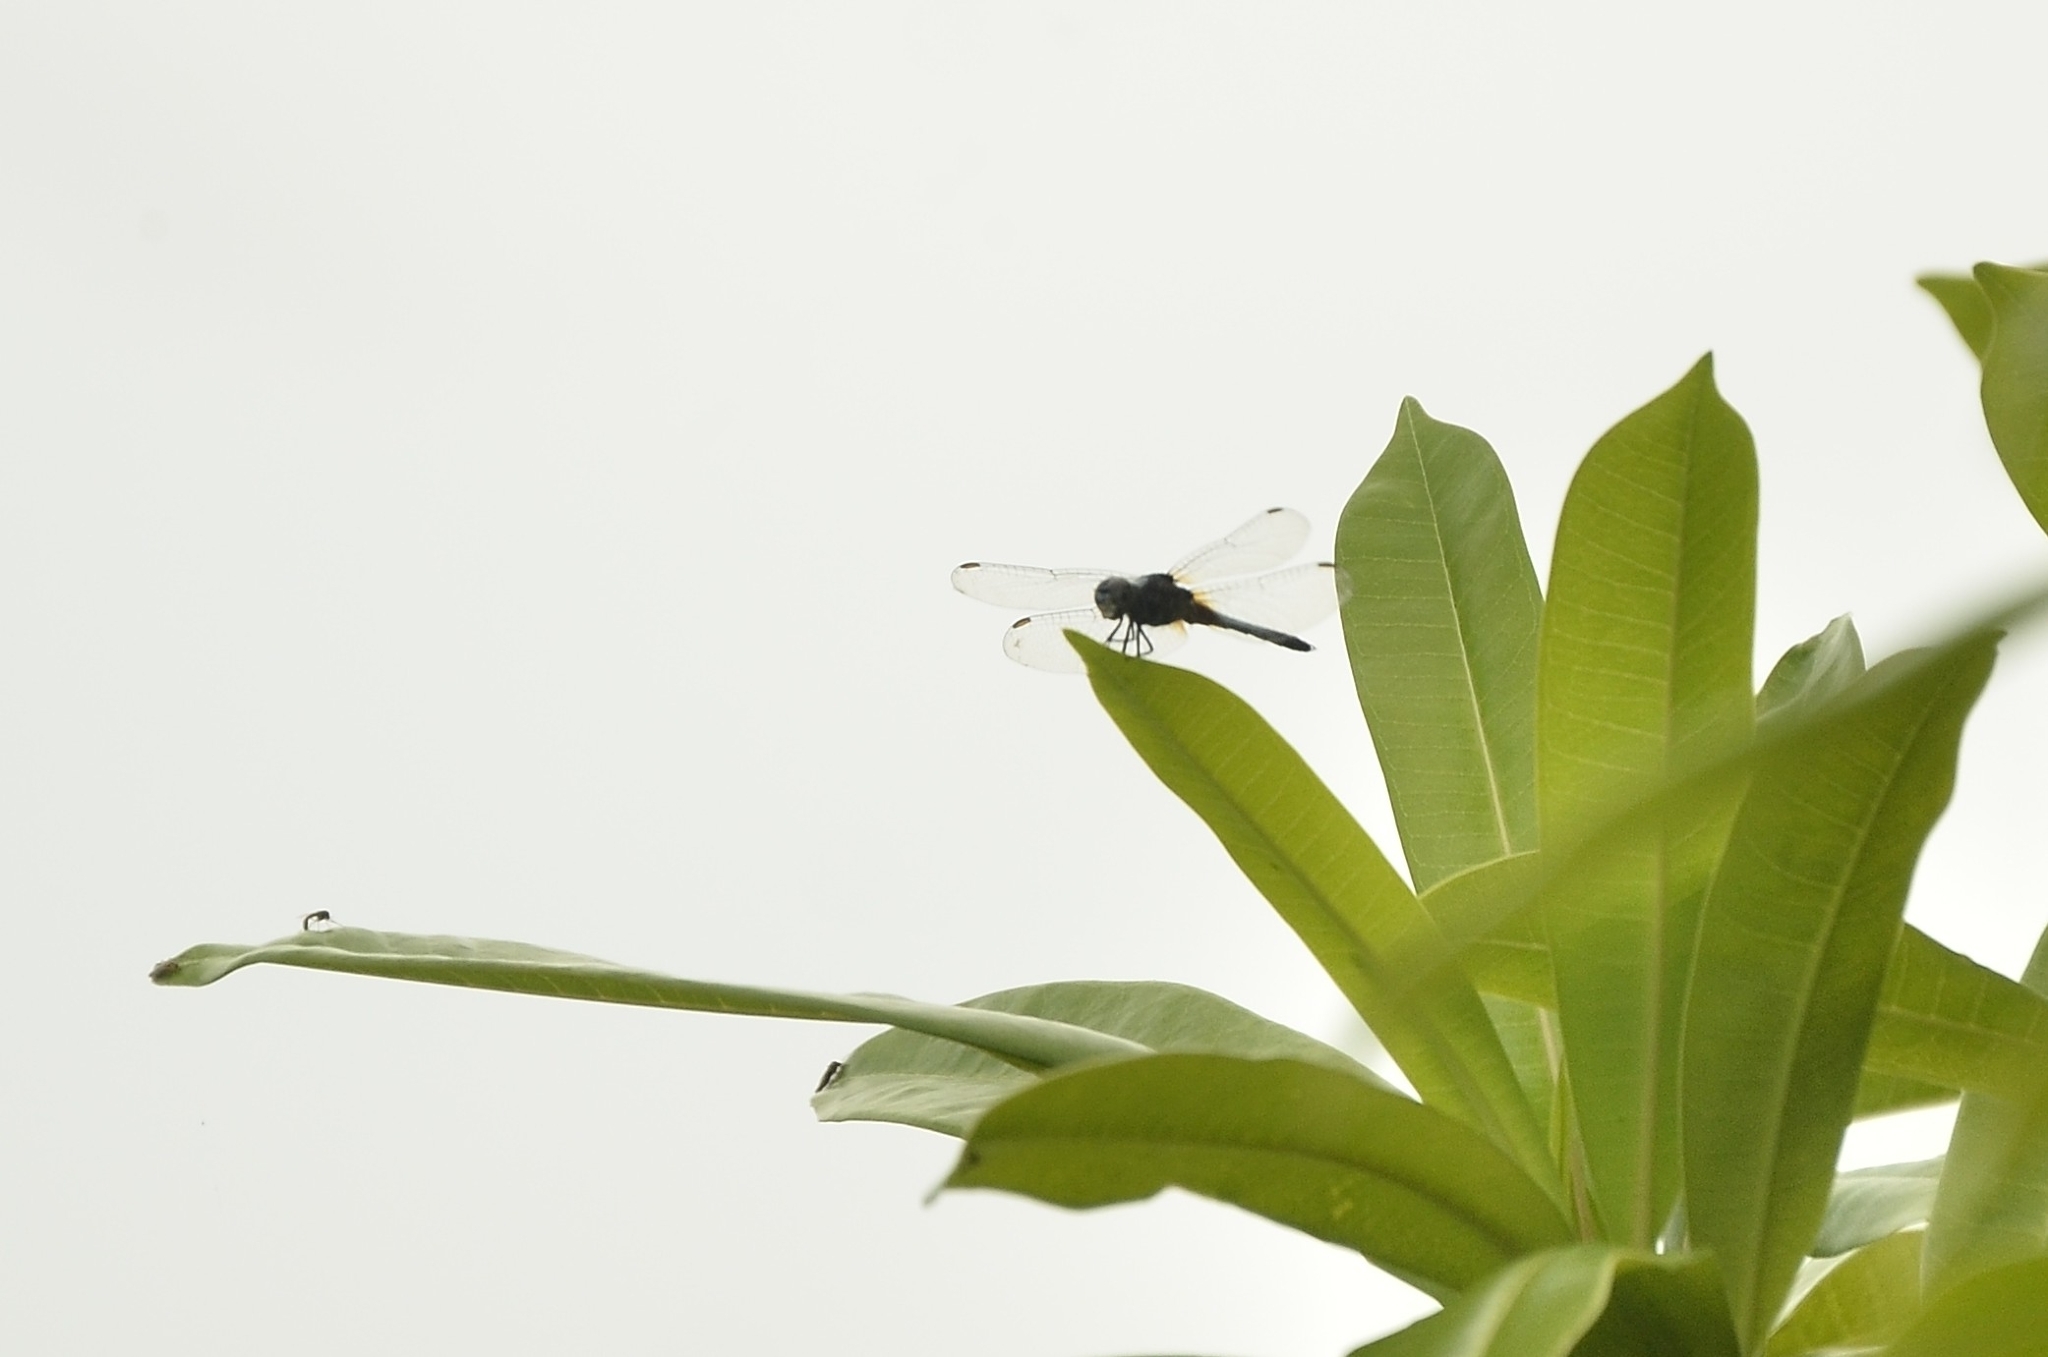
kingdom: Animalia
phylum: Arthropoda
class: Insecta
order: Odonata
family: Libellulidae
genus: Brachydiplax
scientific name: Brachydiplax chalybea
